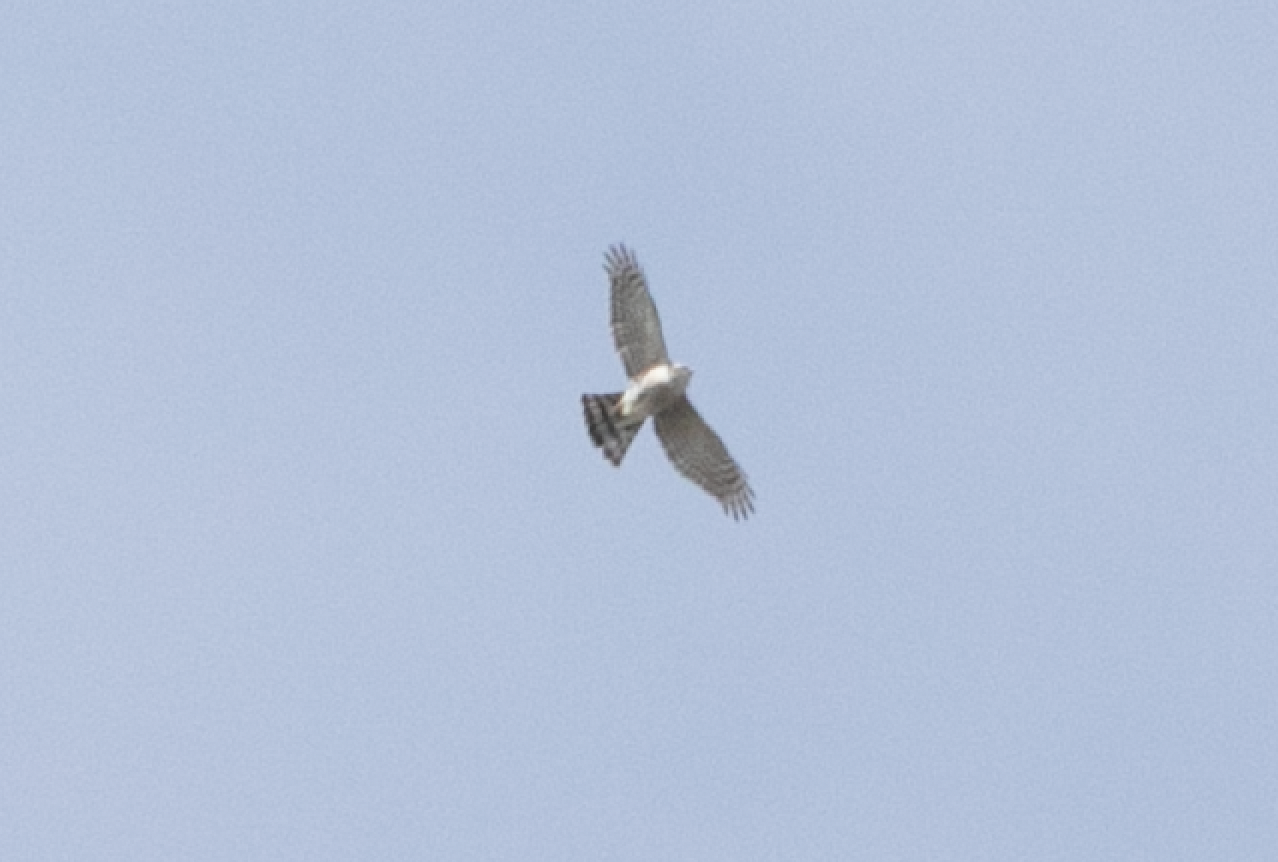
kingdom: Animalia
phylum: Chordata
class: Aves
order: Accipitriformes
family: Accipitridae
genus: Accipiter
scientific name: Accipiter nisus
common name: Eurasian sparrowhawk
